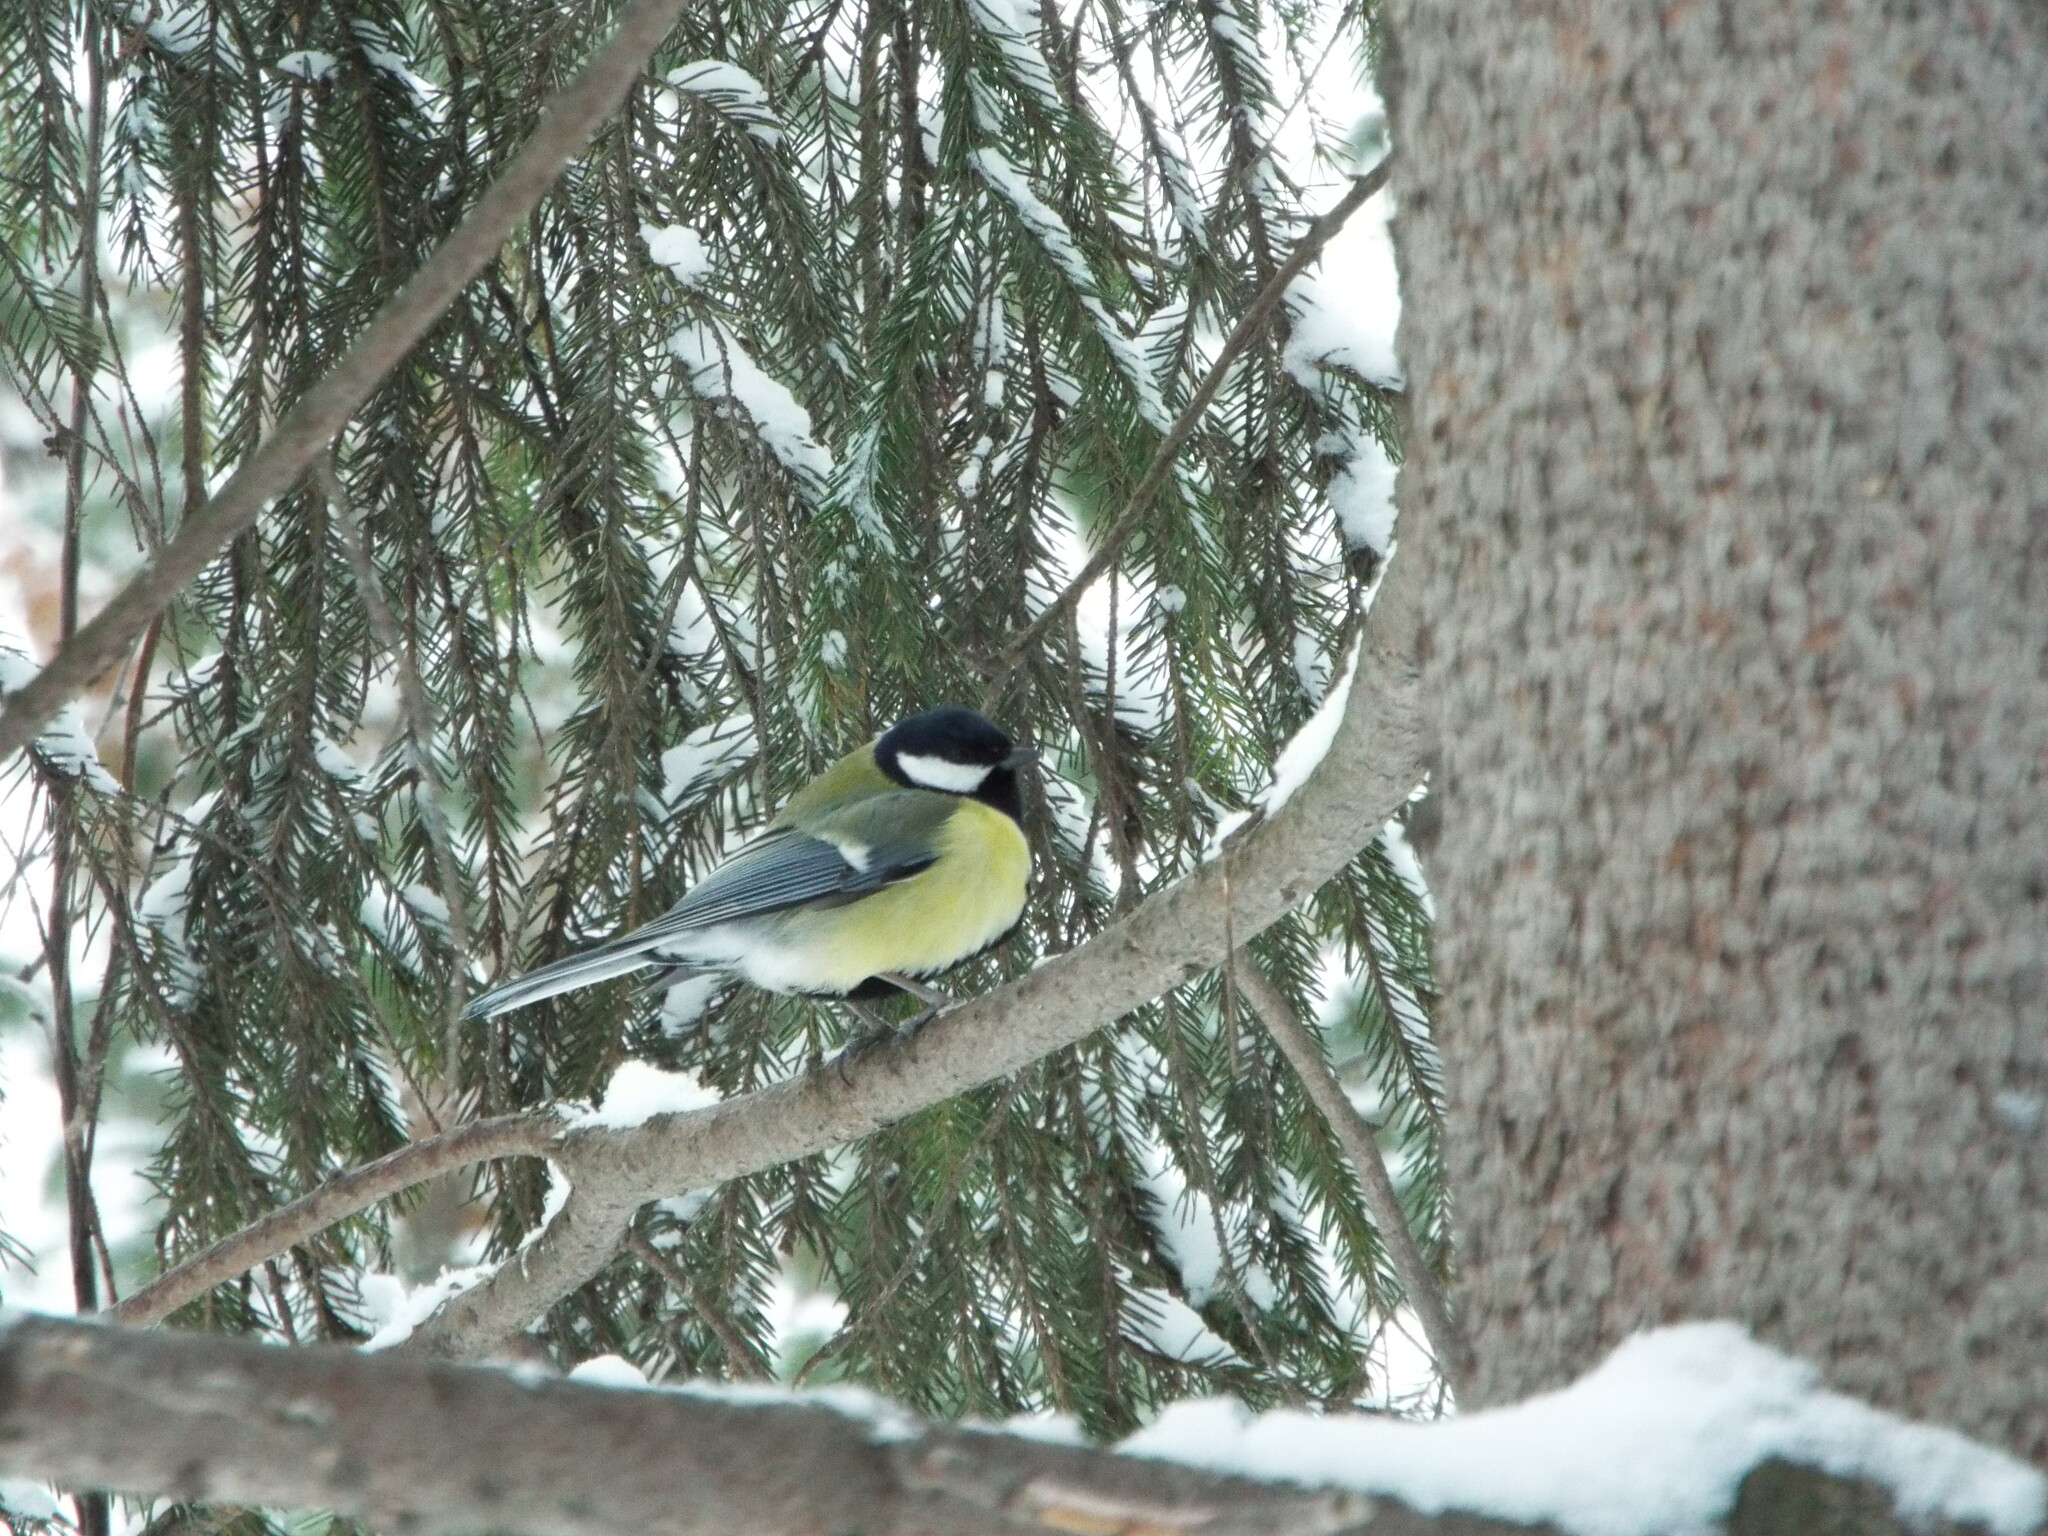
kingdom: Animalia
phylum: Chordata
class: Aves
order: Passeriformes
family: Paridae
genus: Parus
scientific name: Parus major
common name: Great tit
